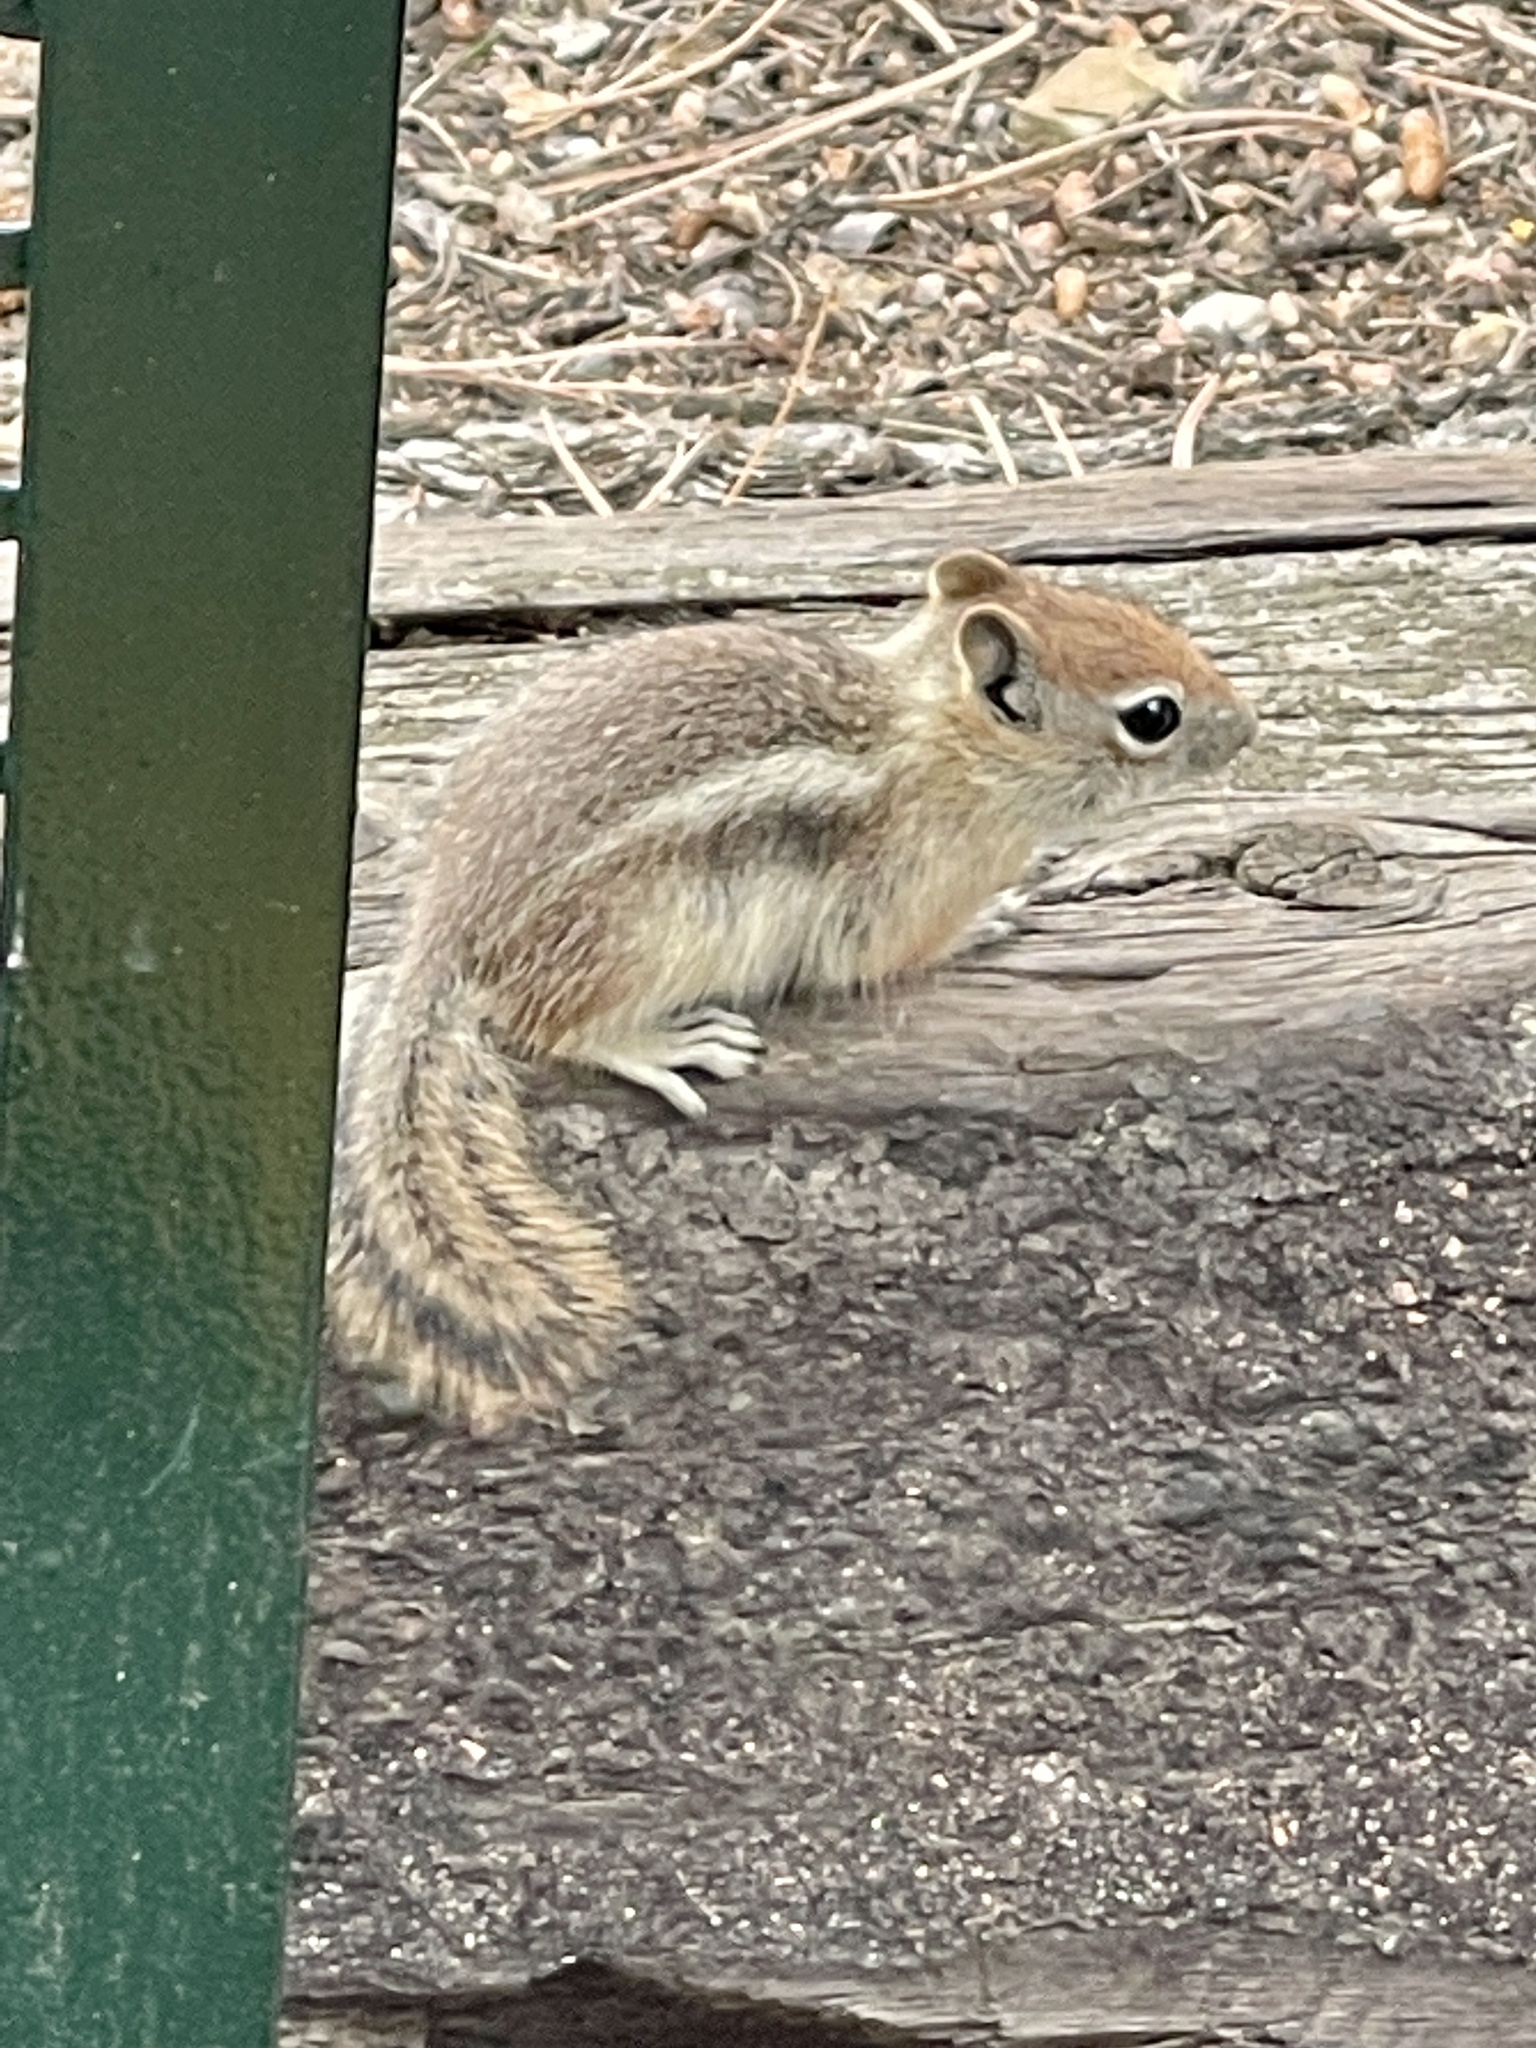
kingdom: Animalia
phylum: Chordata
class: Mammalia
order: Rodentia
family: Sciuridae
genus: Callospermophilus
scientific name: Callospermophilus lateralis
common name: Golden-mantled ground squirrel
